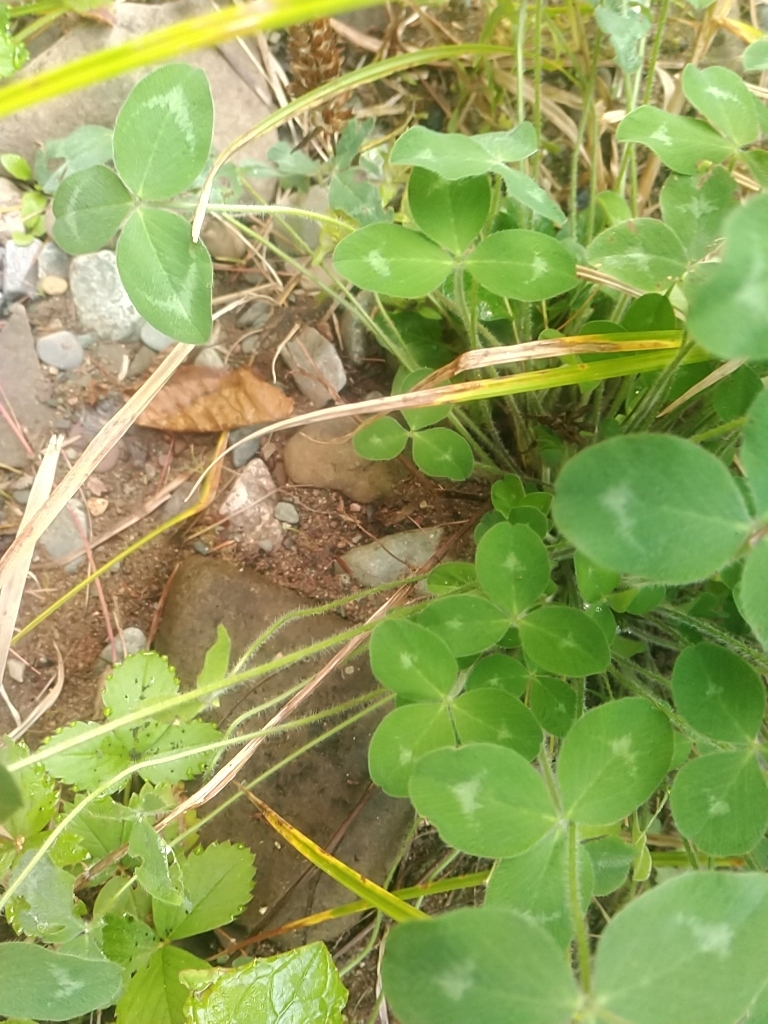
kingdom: Plantae
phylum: Tracheophyta
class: Magnoliopsida
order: Fabales
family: Fabaceae
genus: Trifolium
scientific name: Trifolium pratense
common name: Red clover
